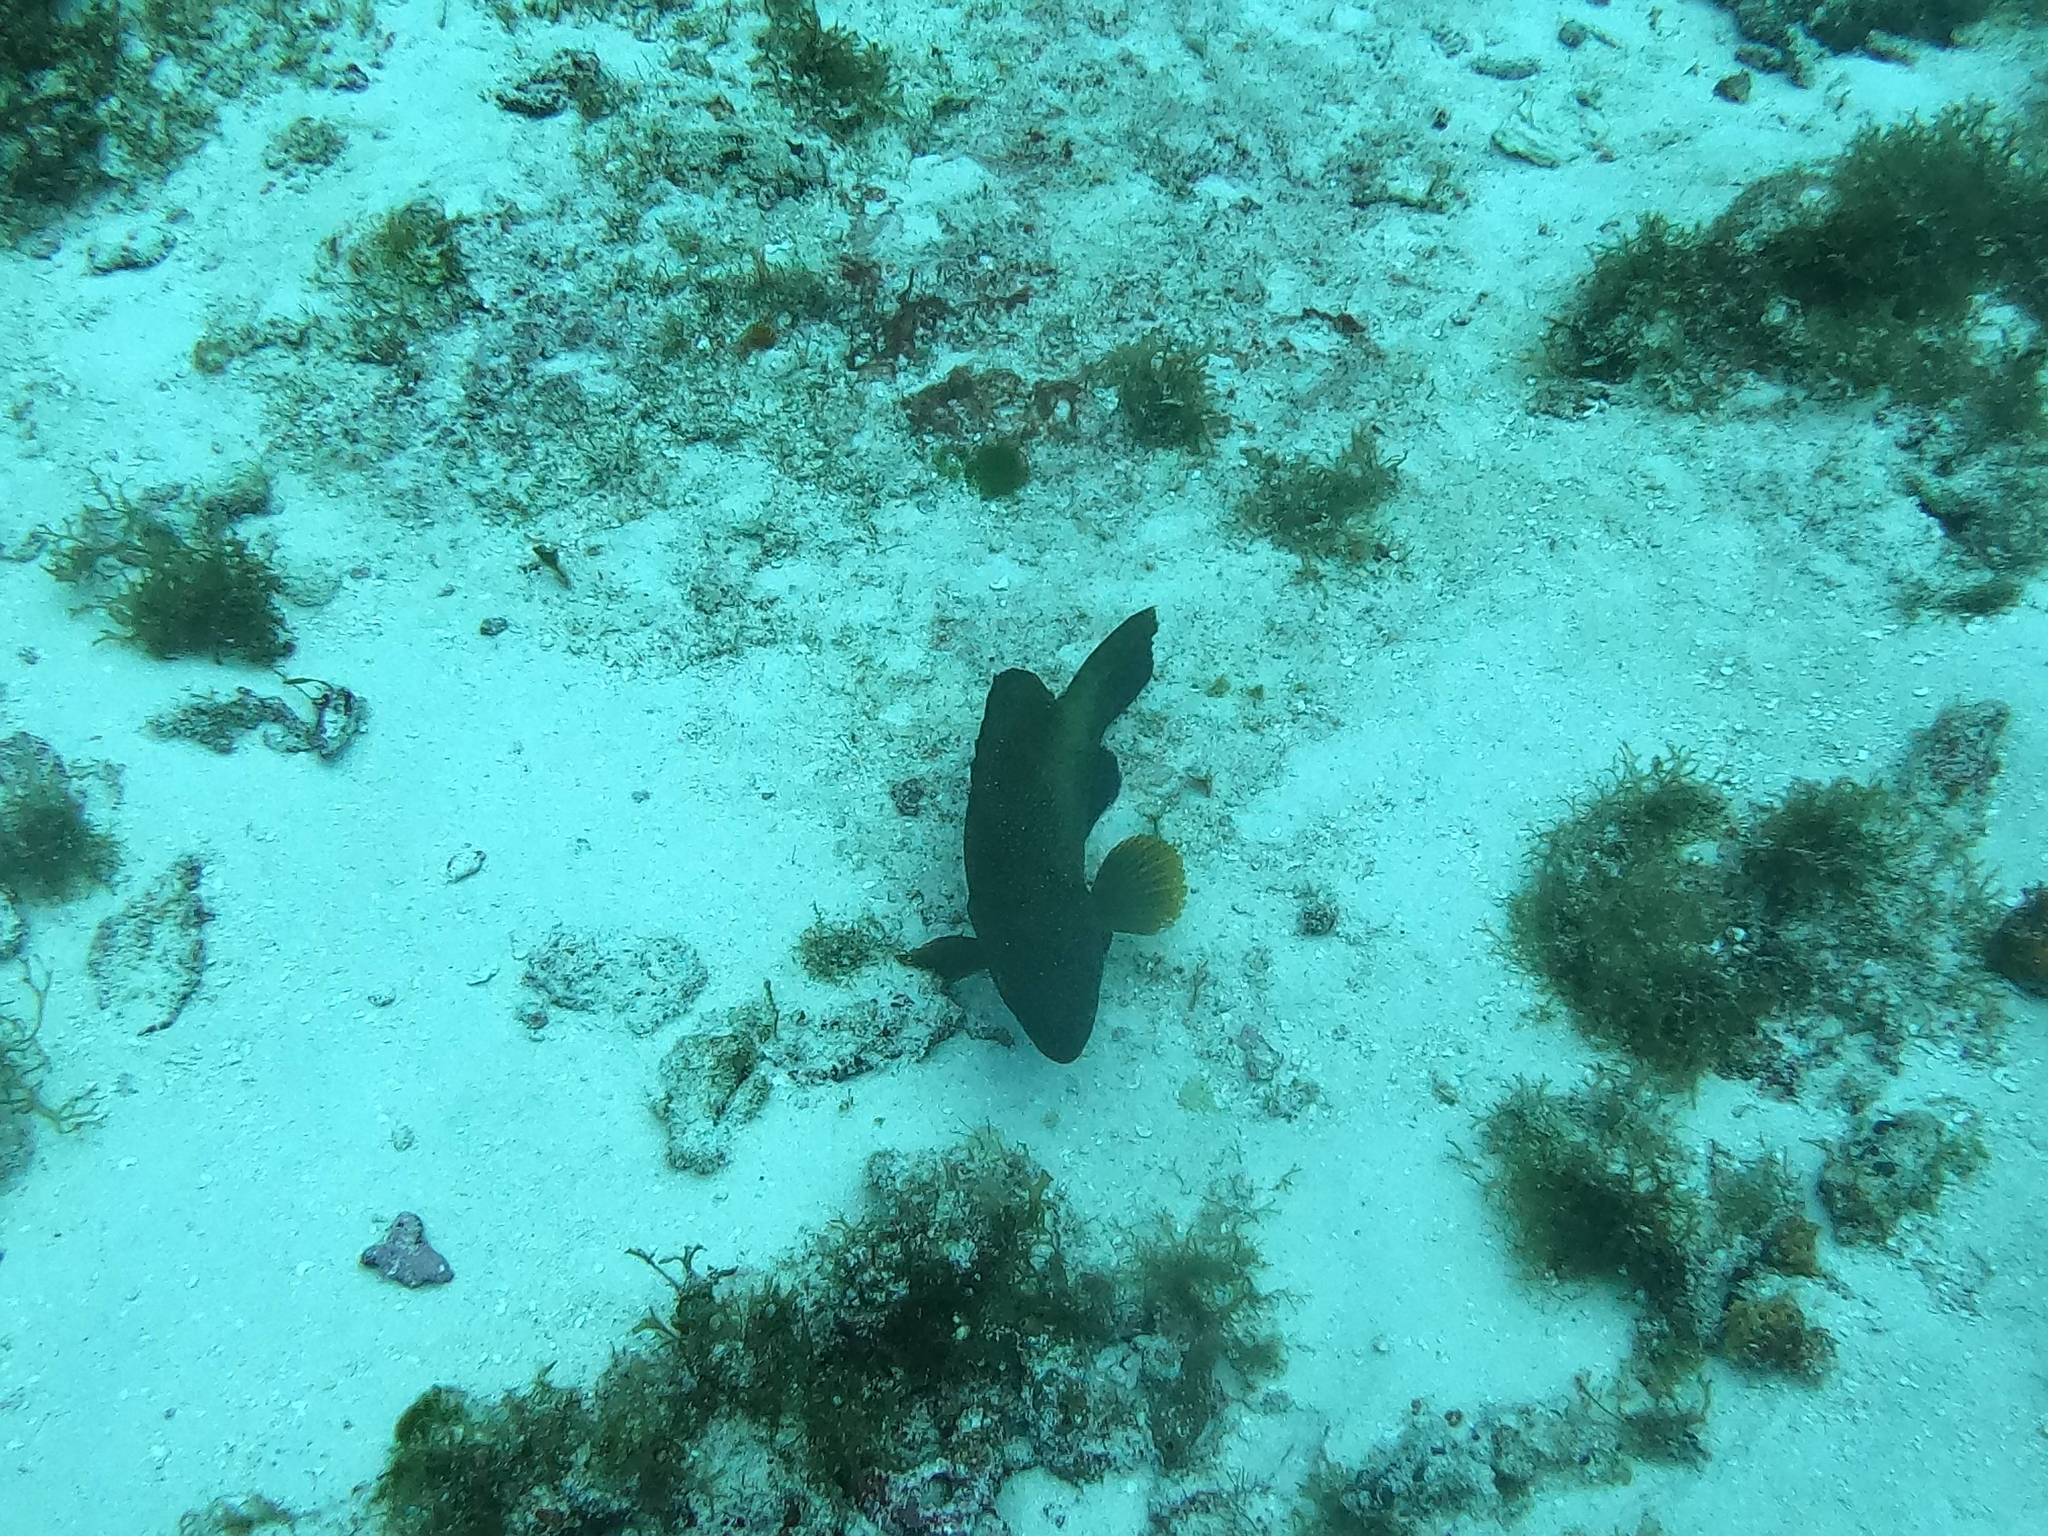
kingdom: Animalia
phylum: Chordata
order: Perciformes
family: Serranidae
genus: Cephalopholis
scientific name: Cephalopholis fulva
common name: Butterfish
